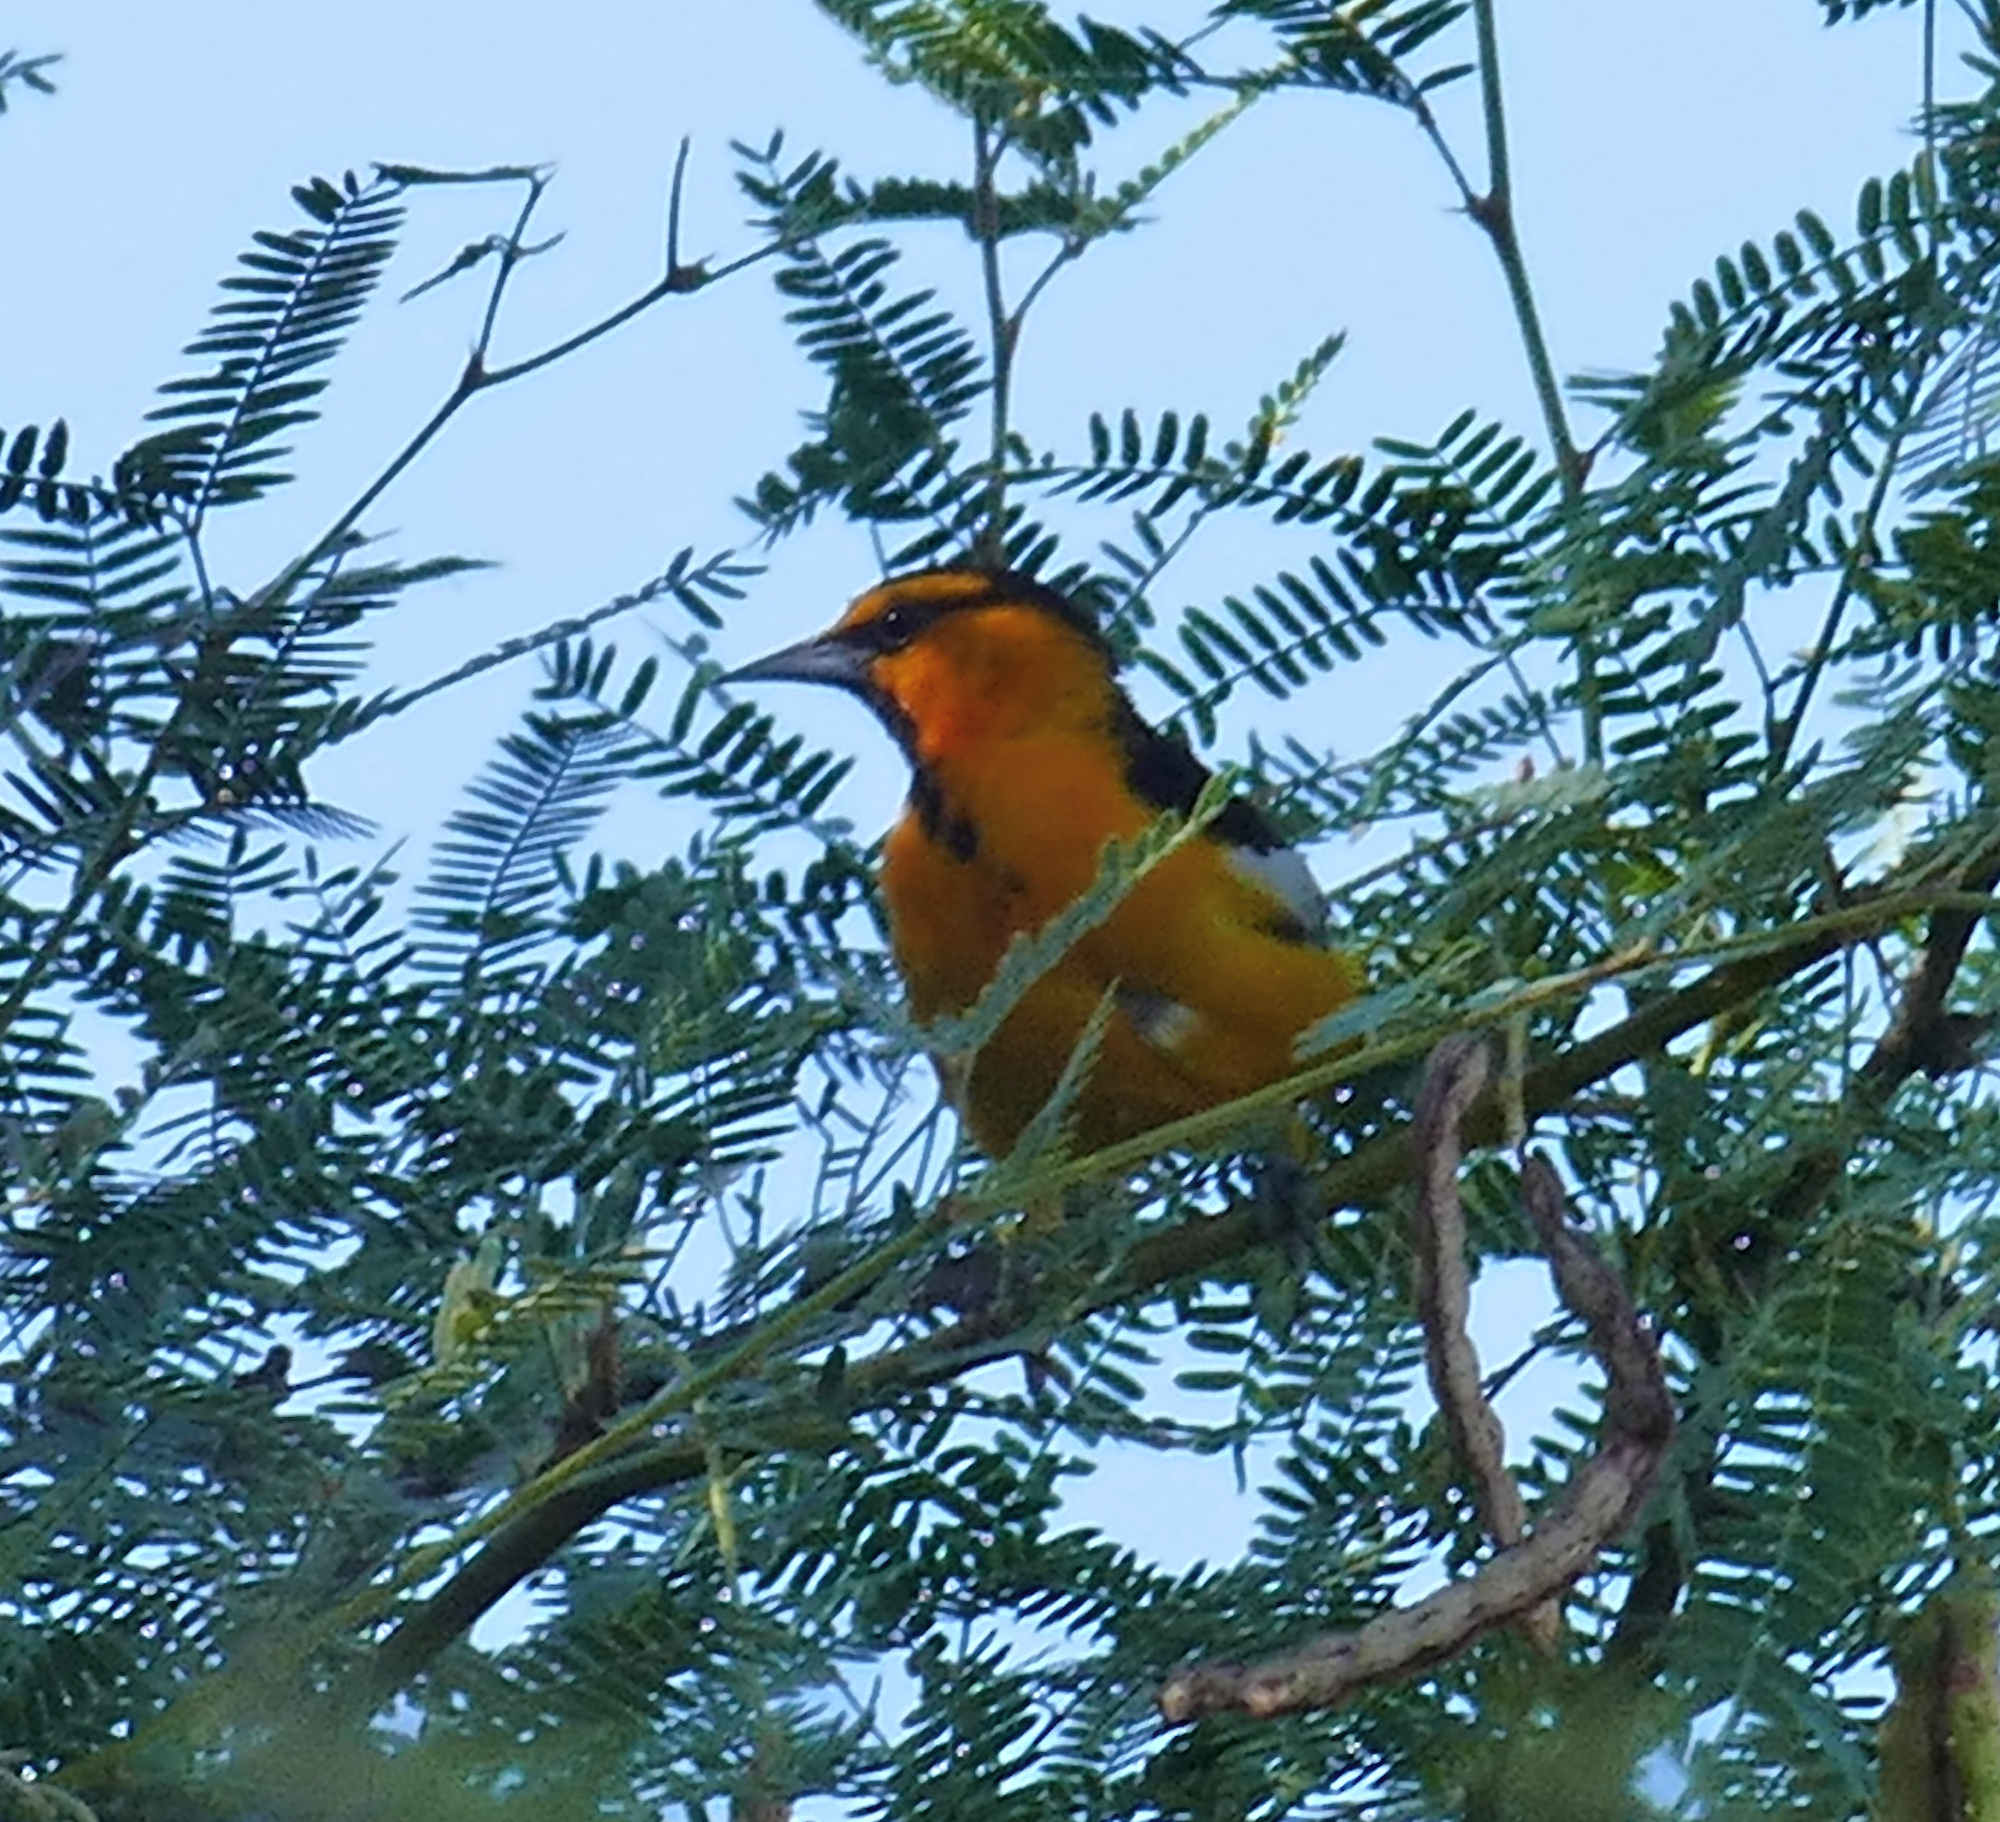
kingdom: Animalia
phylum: Chordata
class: Aves
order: Passeriformes
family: Icteridae
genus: Icterus
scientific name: Icterus bullockii
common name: Bullock's oriole
